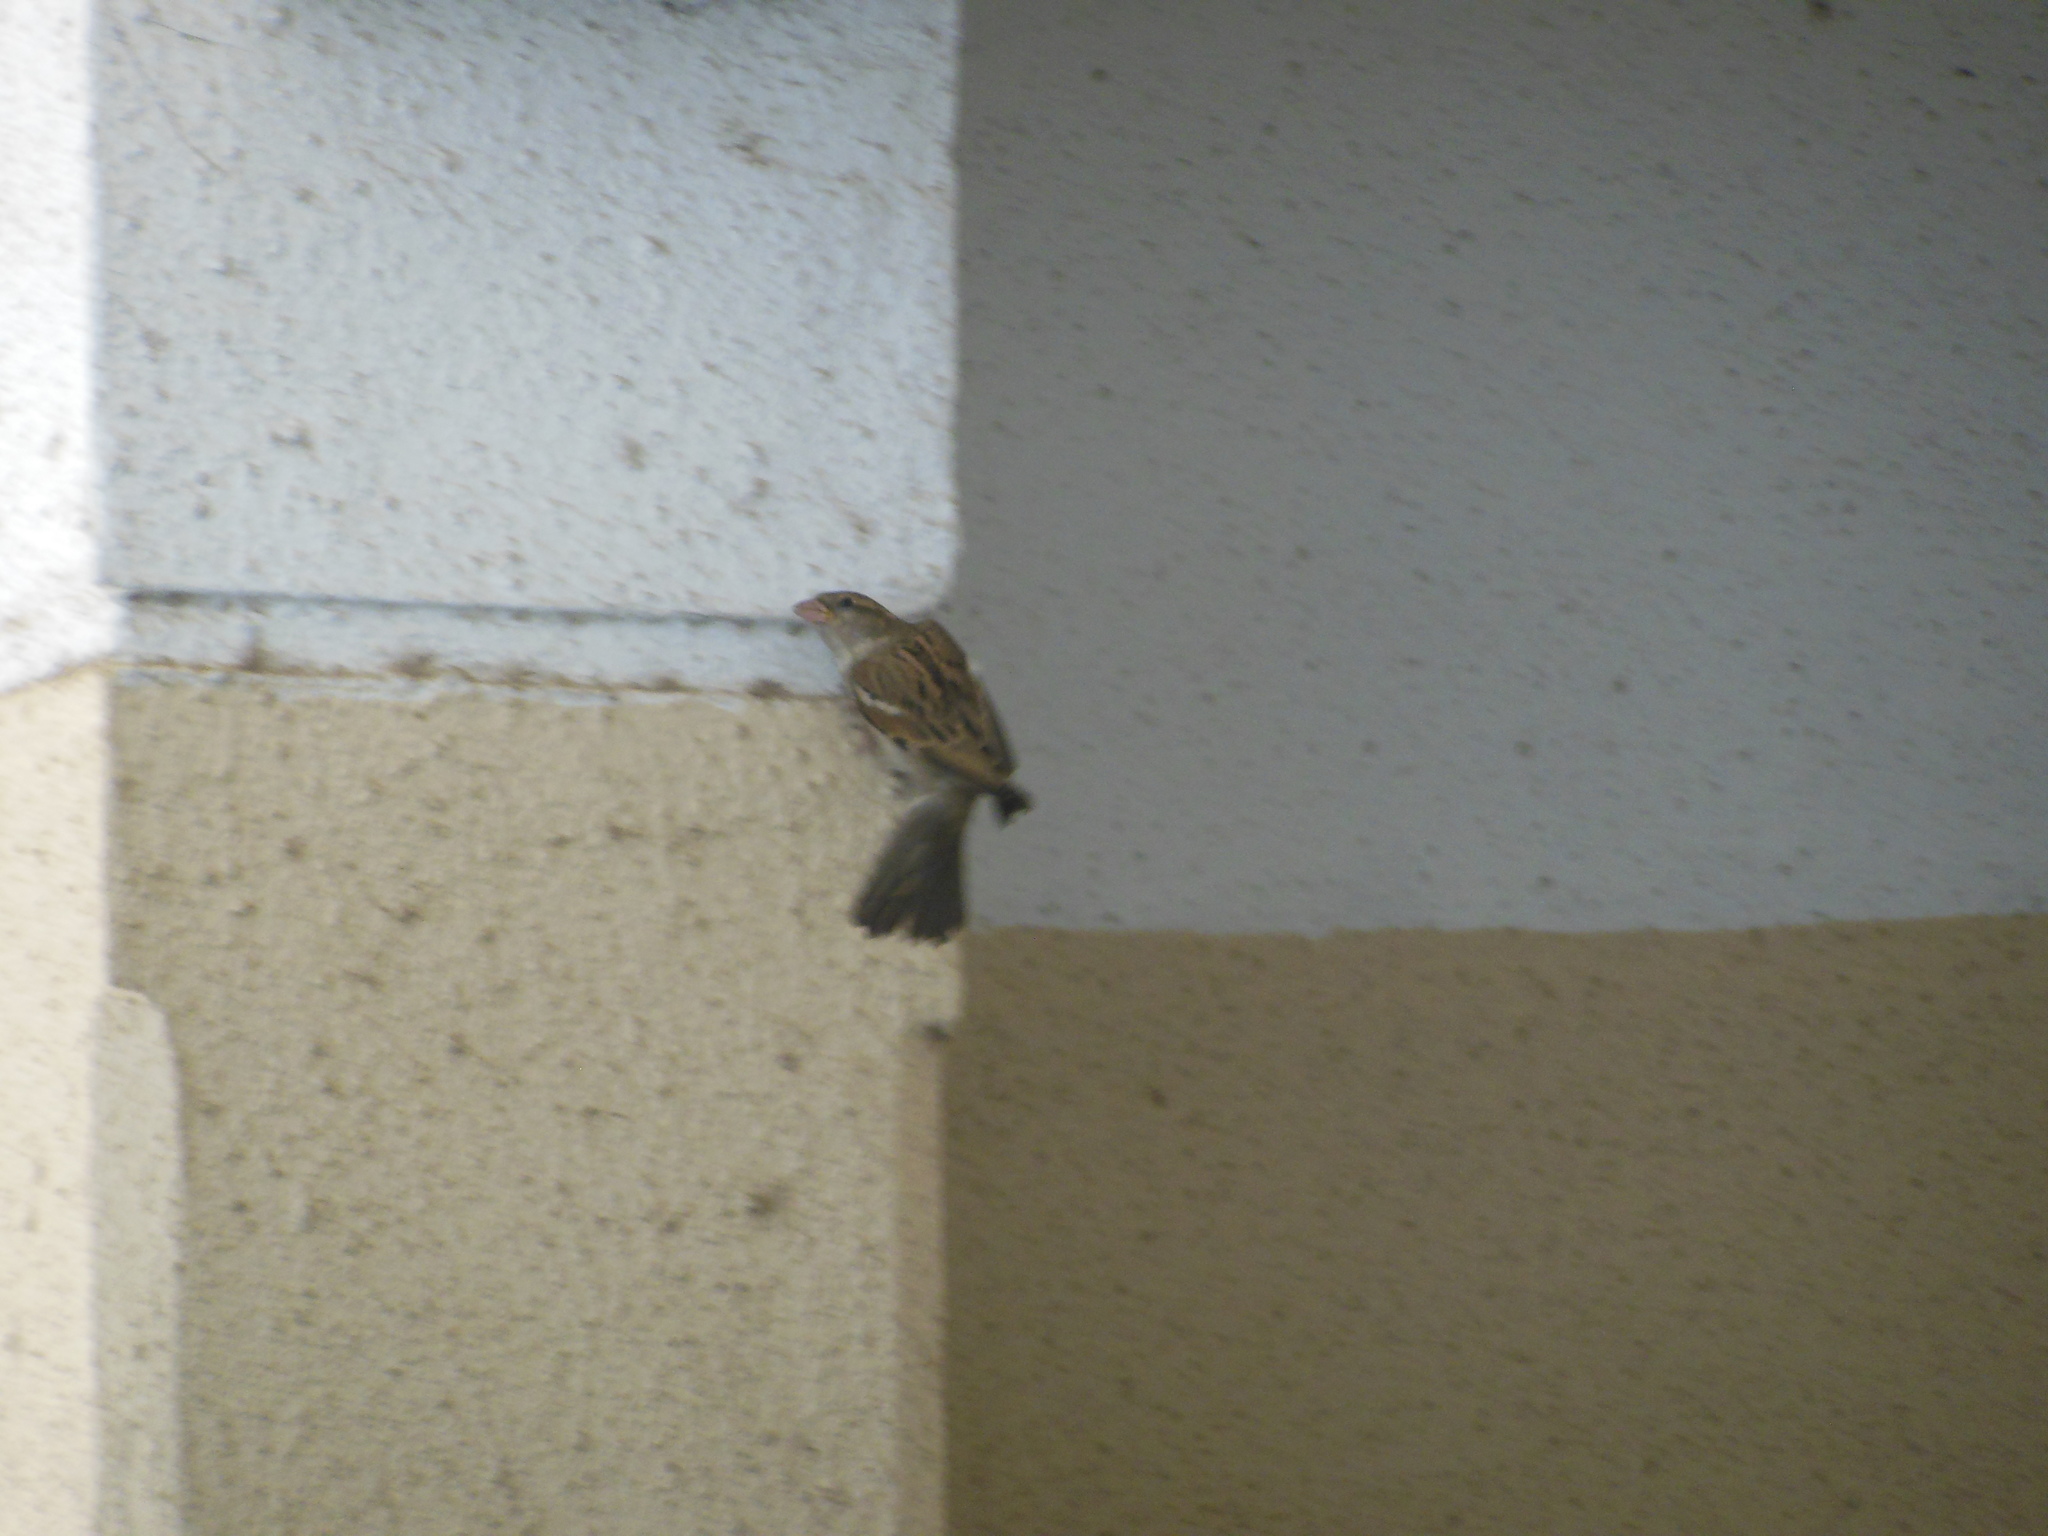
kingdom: Animalia
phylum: Chordata
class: Aves
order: Passeriformes
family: Passeridae
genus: Passer
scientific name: Passer domesticus
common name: House sparrow
